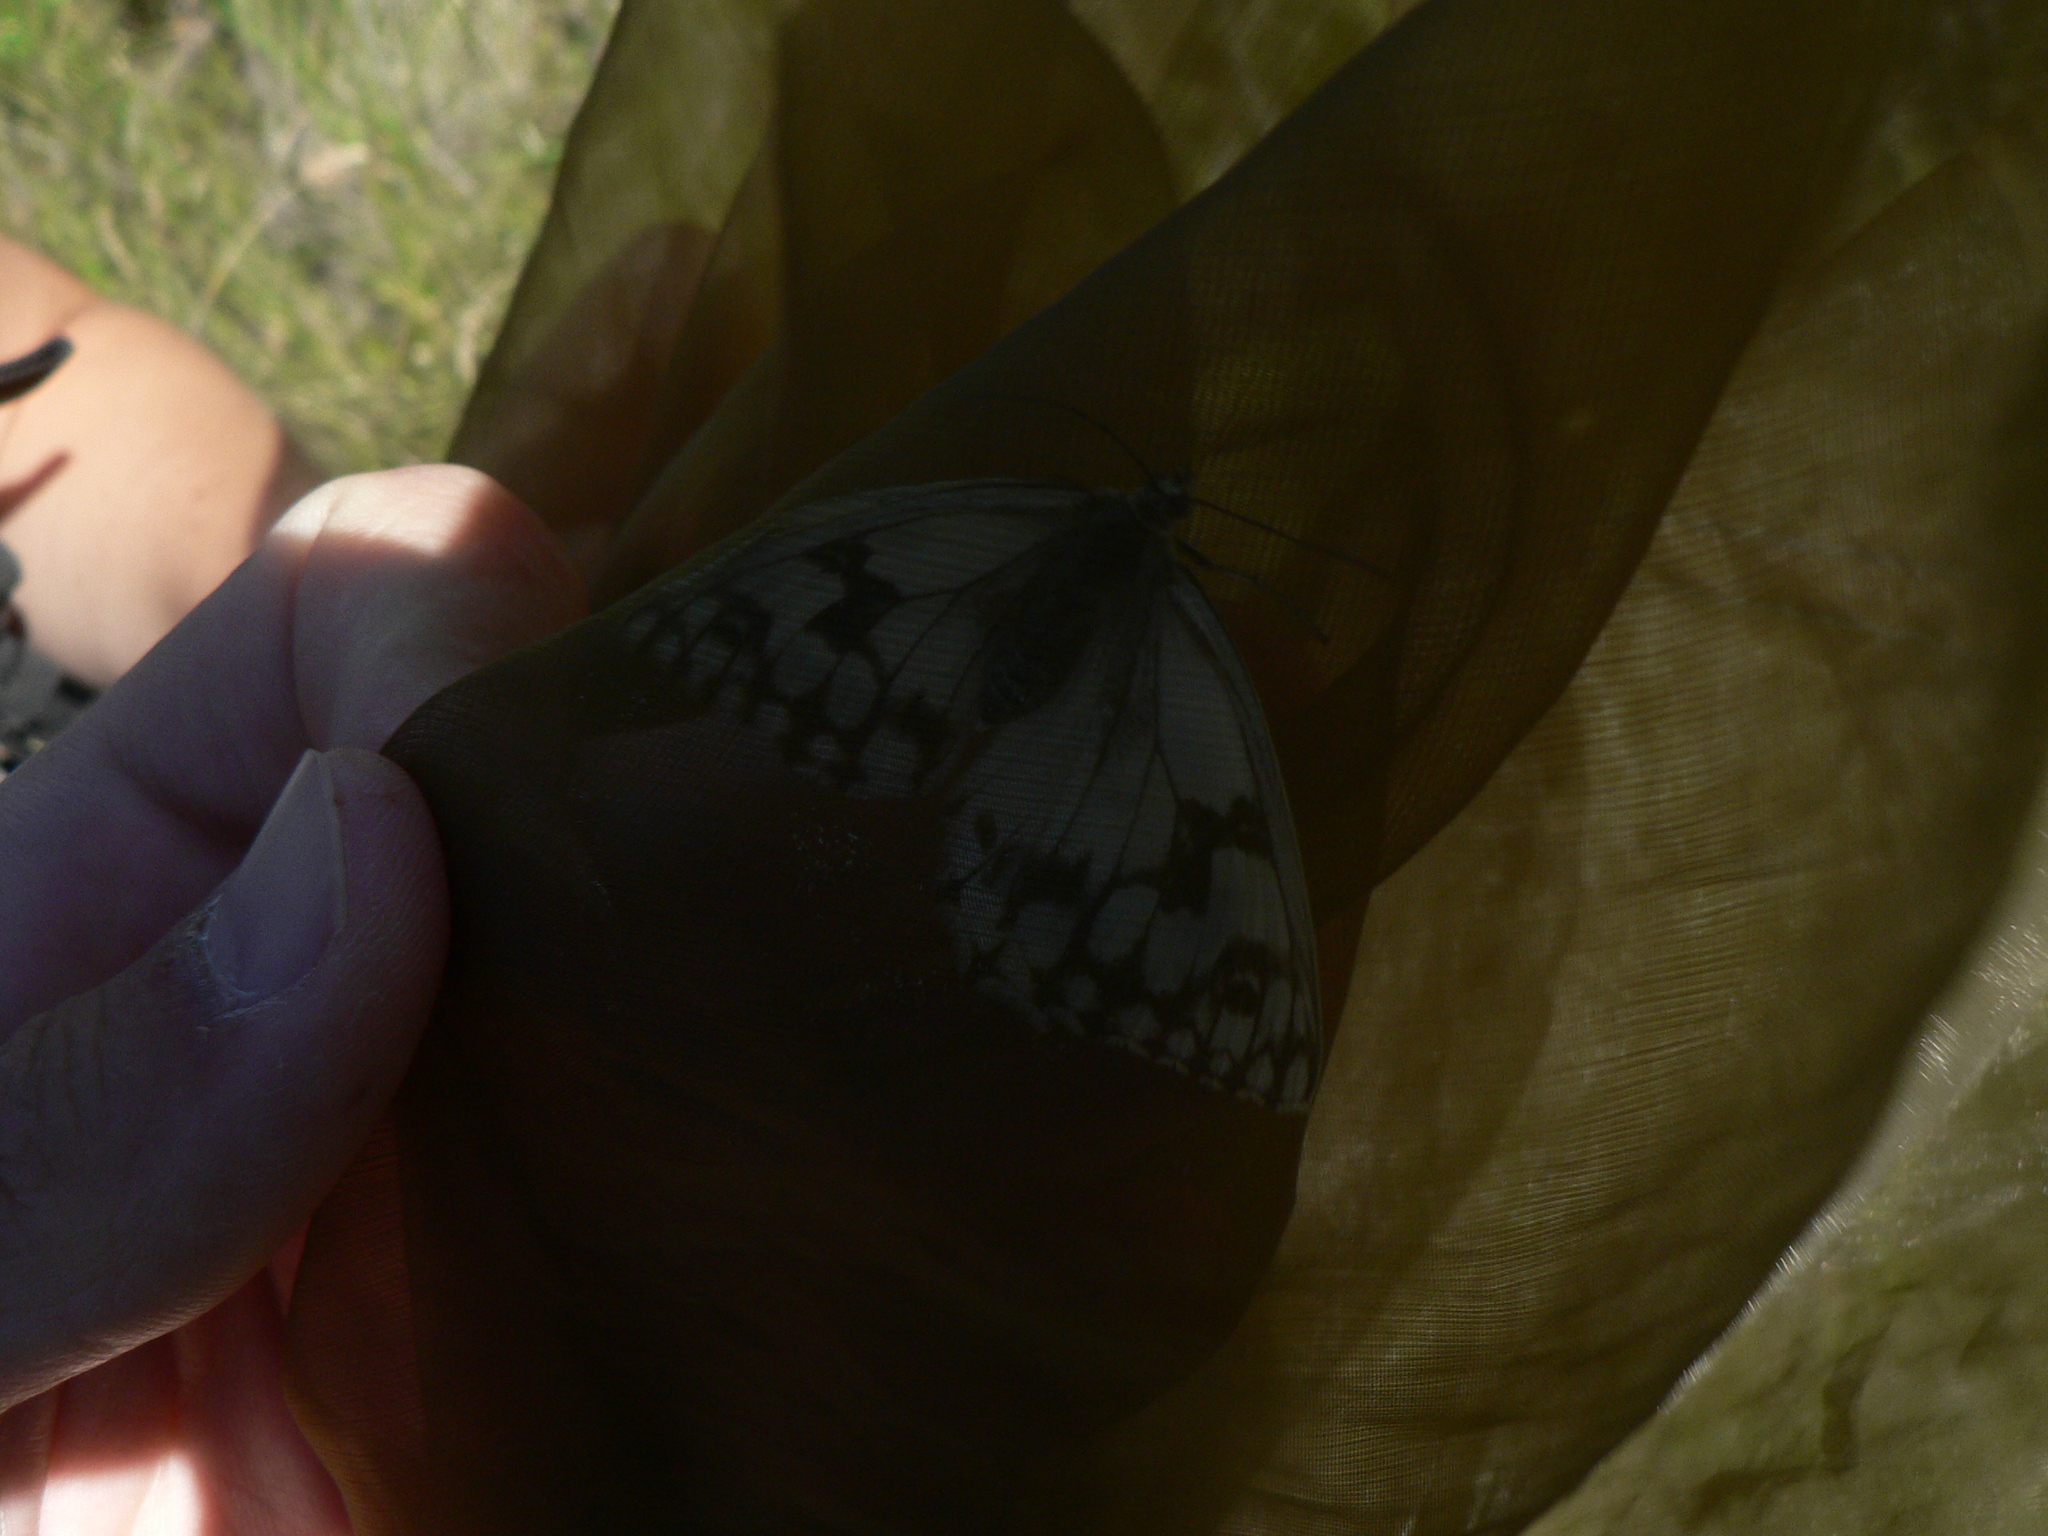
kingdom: Animalia
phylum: Arthropoda
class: Insecta
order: Lepidoptera
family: Nymphalidae
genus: Melanargia
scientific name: Melanargia lachesis
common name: Iberian marbled white
